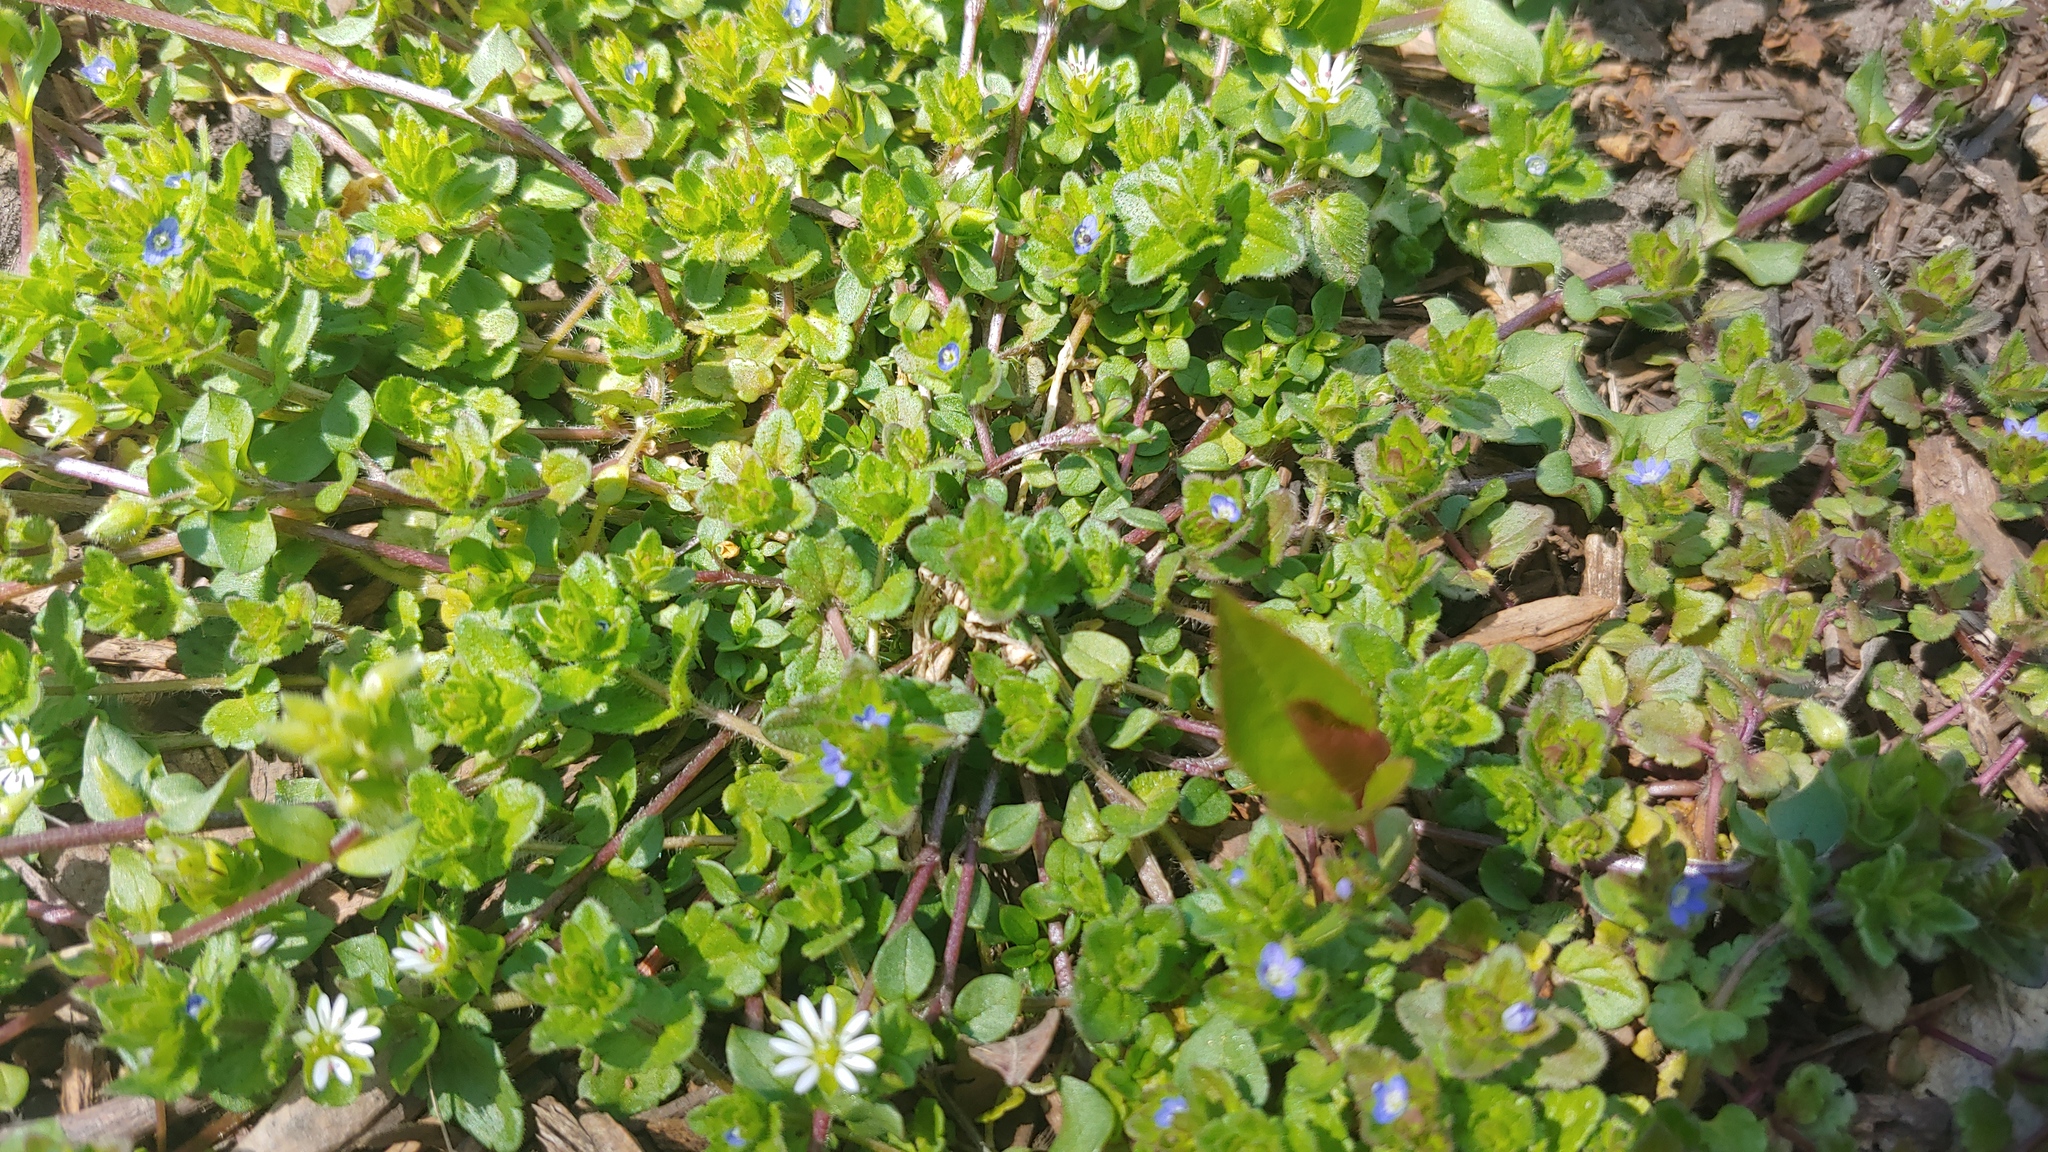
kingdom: Plantae
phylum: Tracheophyta
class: Magnoliopsida
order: Lamiales
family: Plantaginaceae
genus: Veronica
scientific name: Veronica arvensis
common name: Corn speedwell
